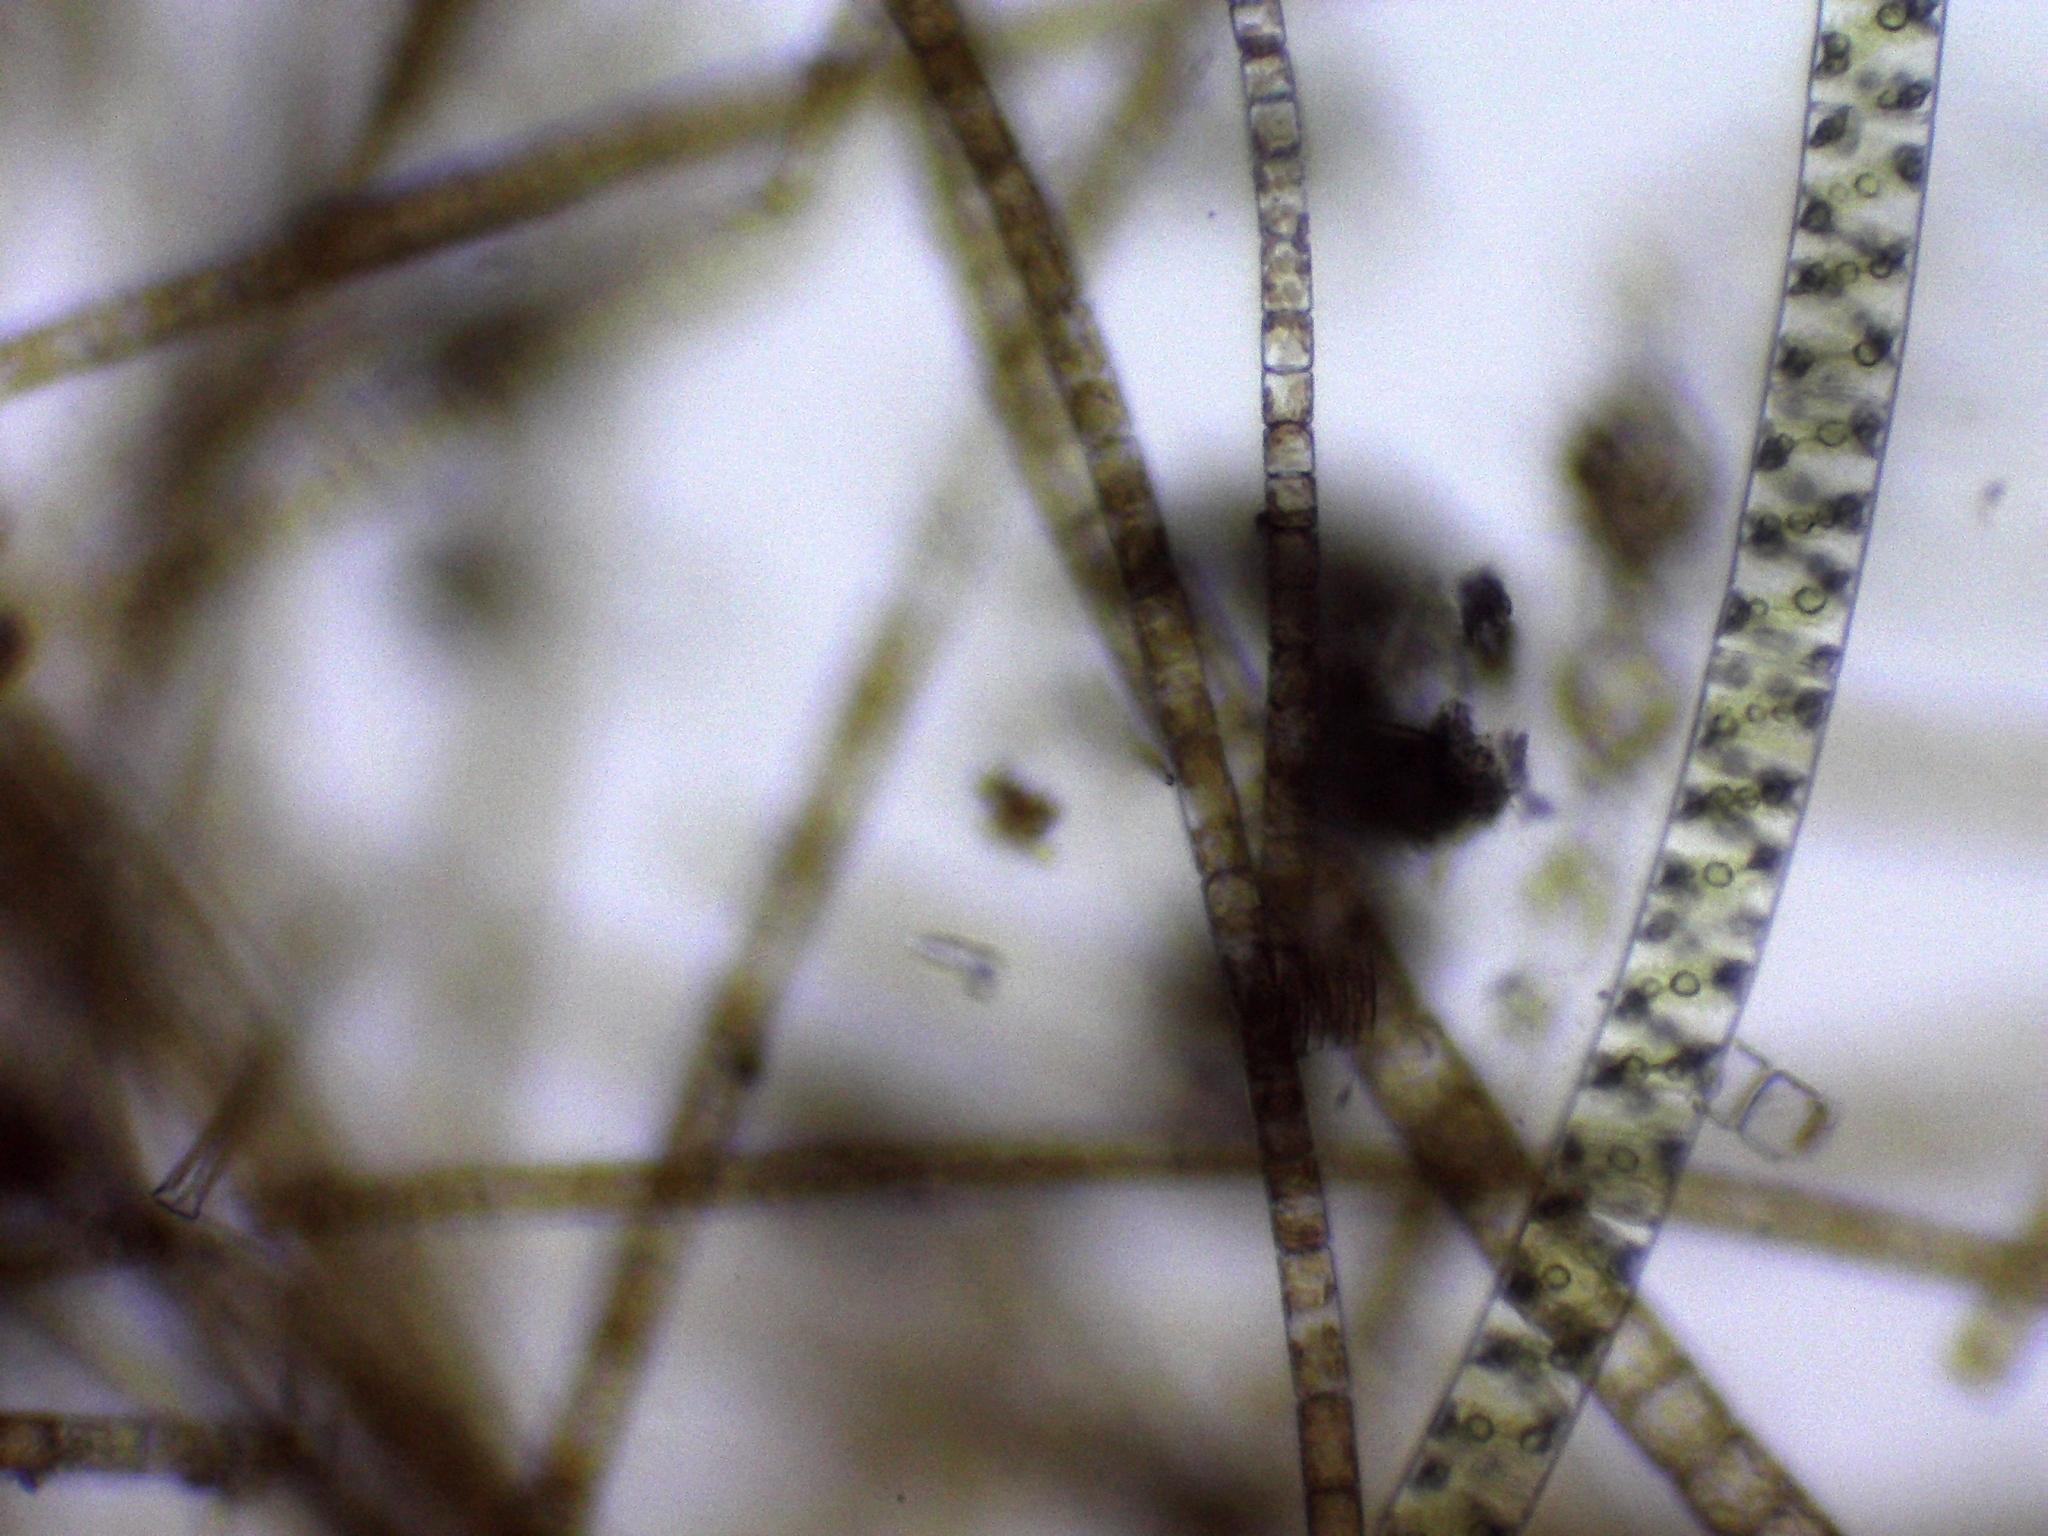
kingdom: Plantae
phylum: Charophyta
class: Zygnematophyceae
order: Zygnematales
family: Zygnemataceae
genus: Spirogyra
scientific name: Spirogyra
